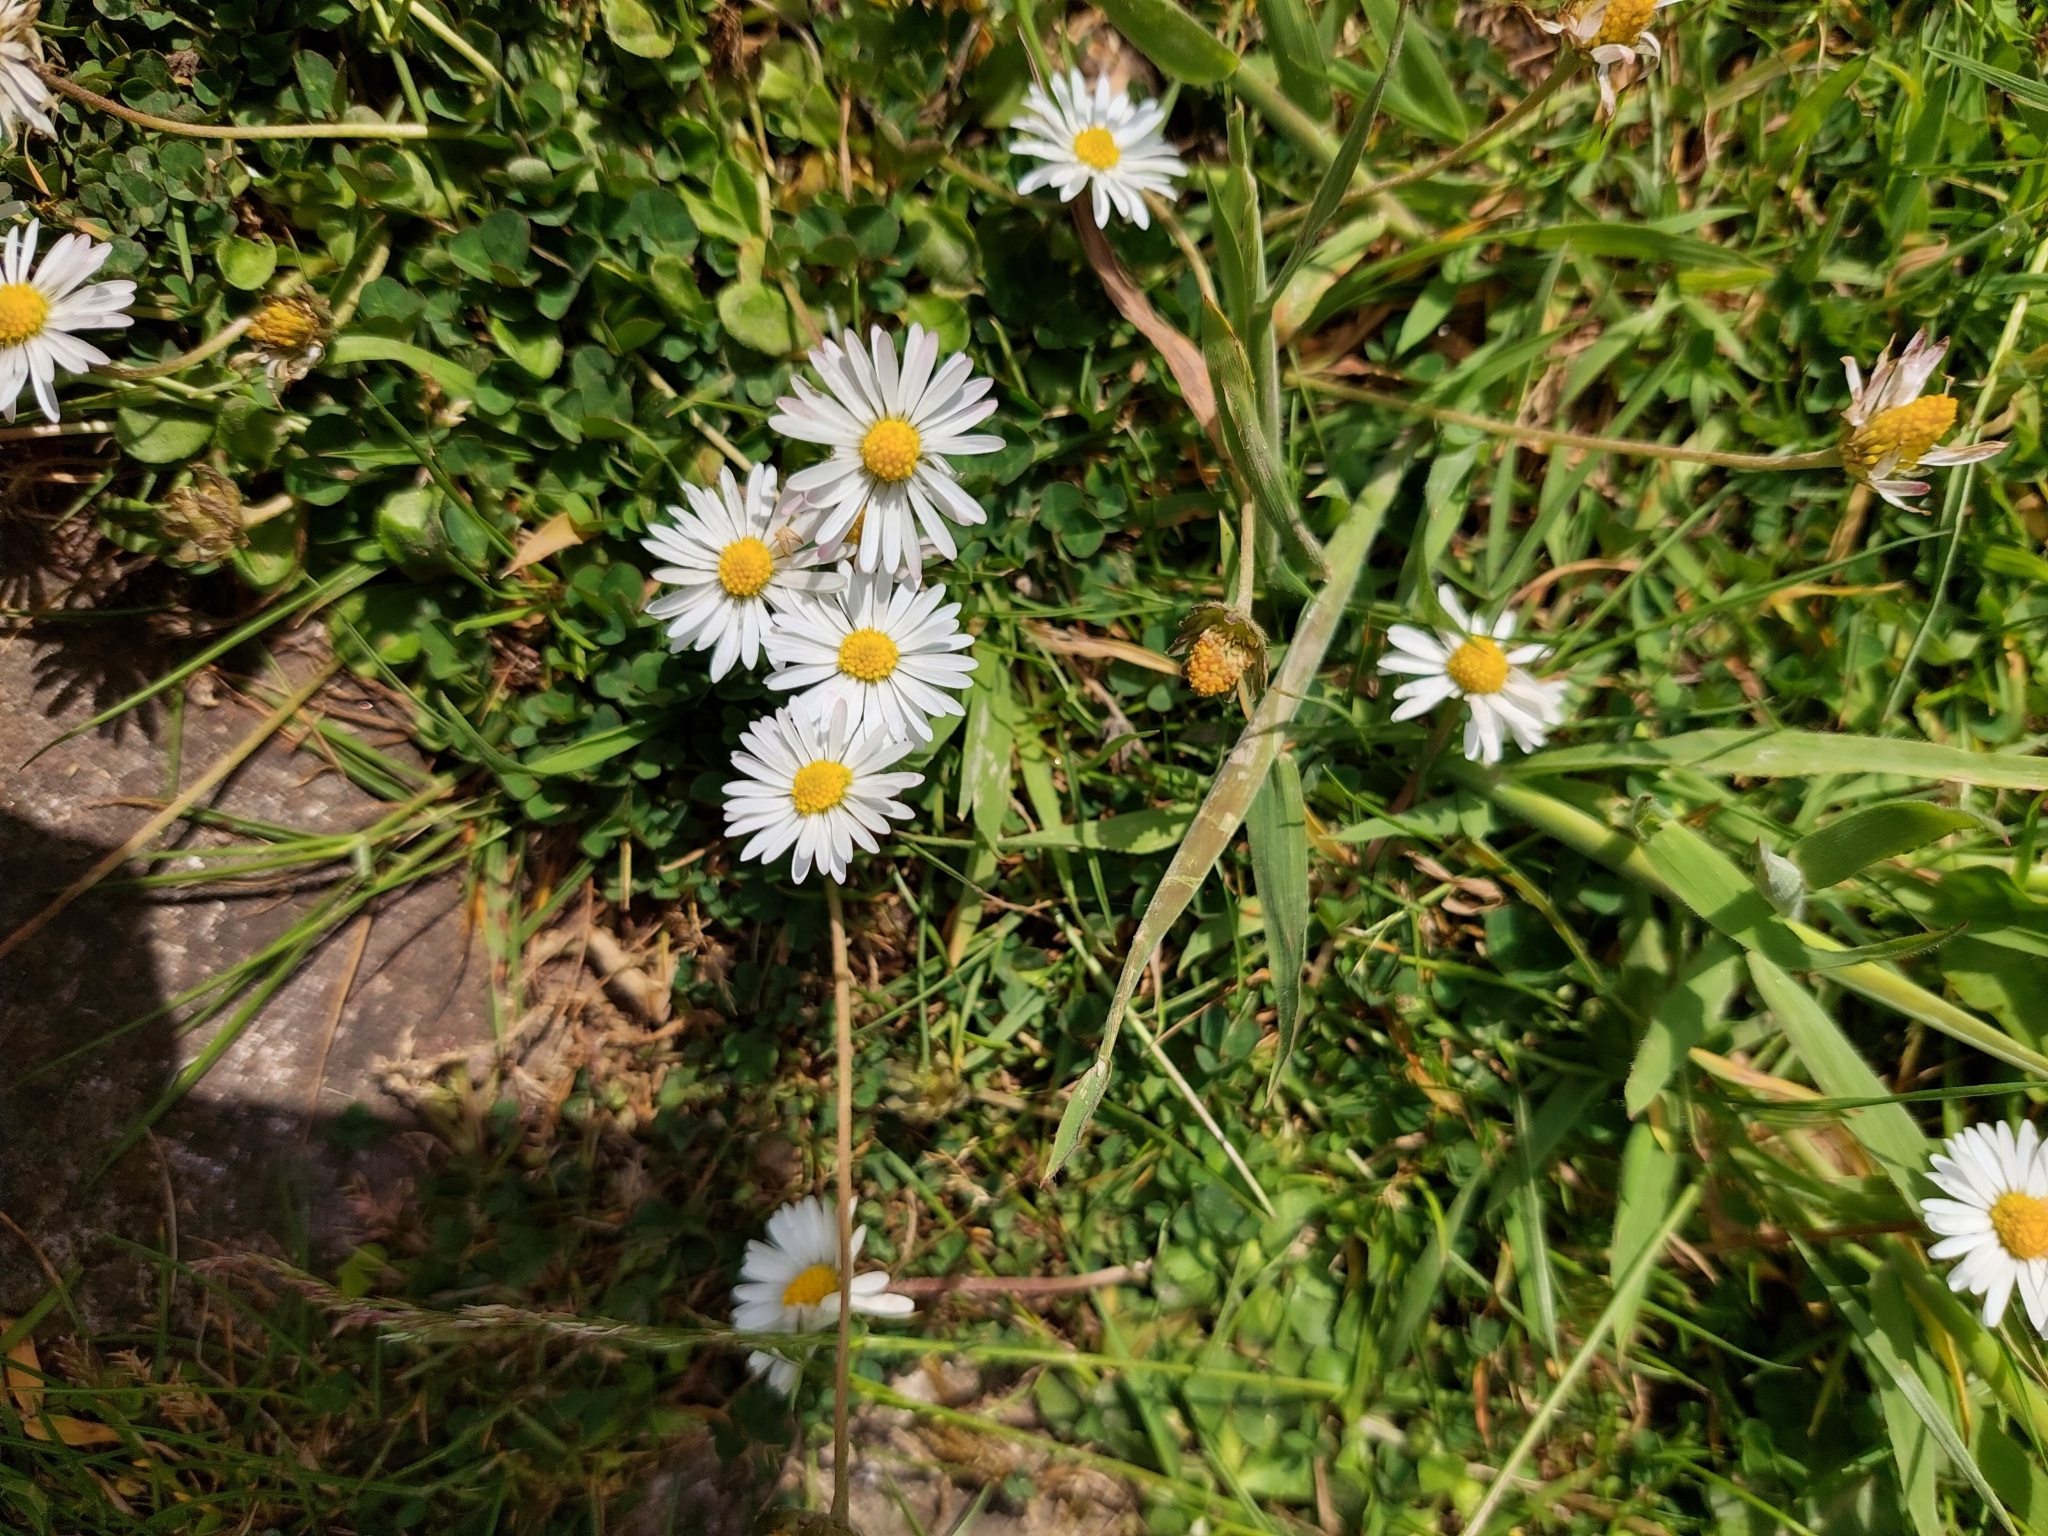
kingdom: Plantae
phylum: Tracheophyta
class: Magnoliopsida
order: Asterales
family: Asteraceae
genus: Bellis
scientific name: Bellis perennis
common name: Lawndaisy
